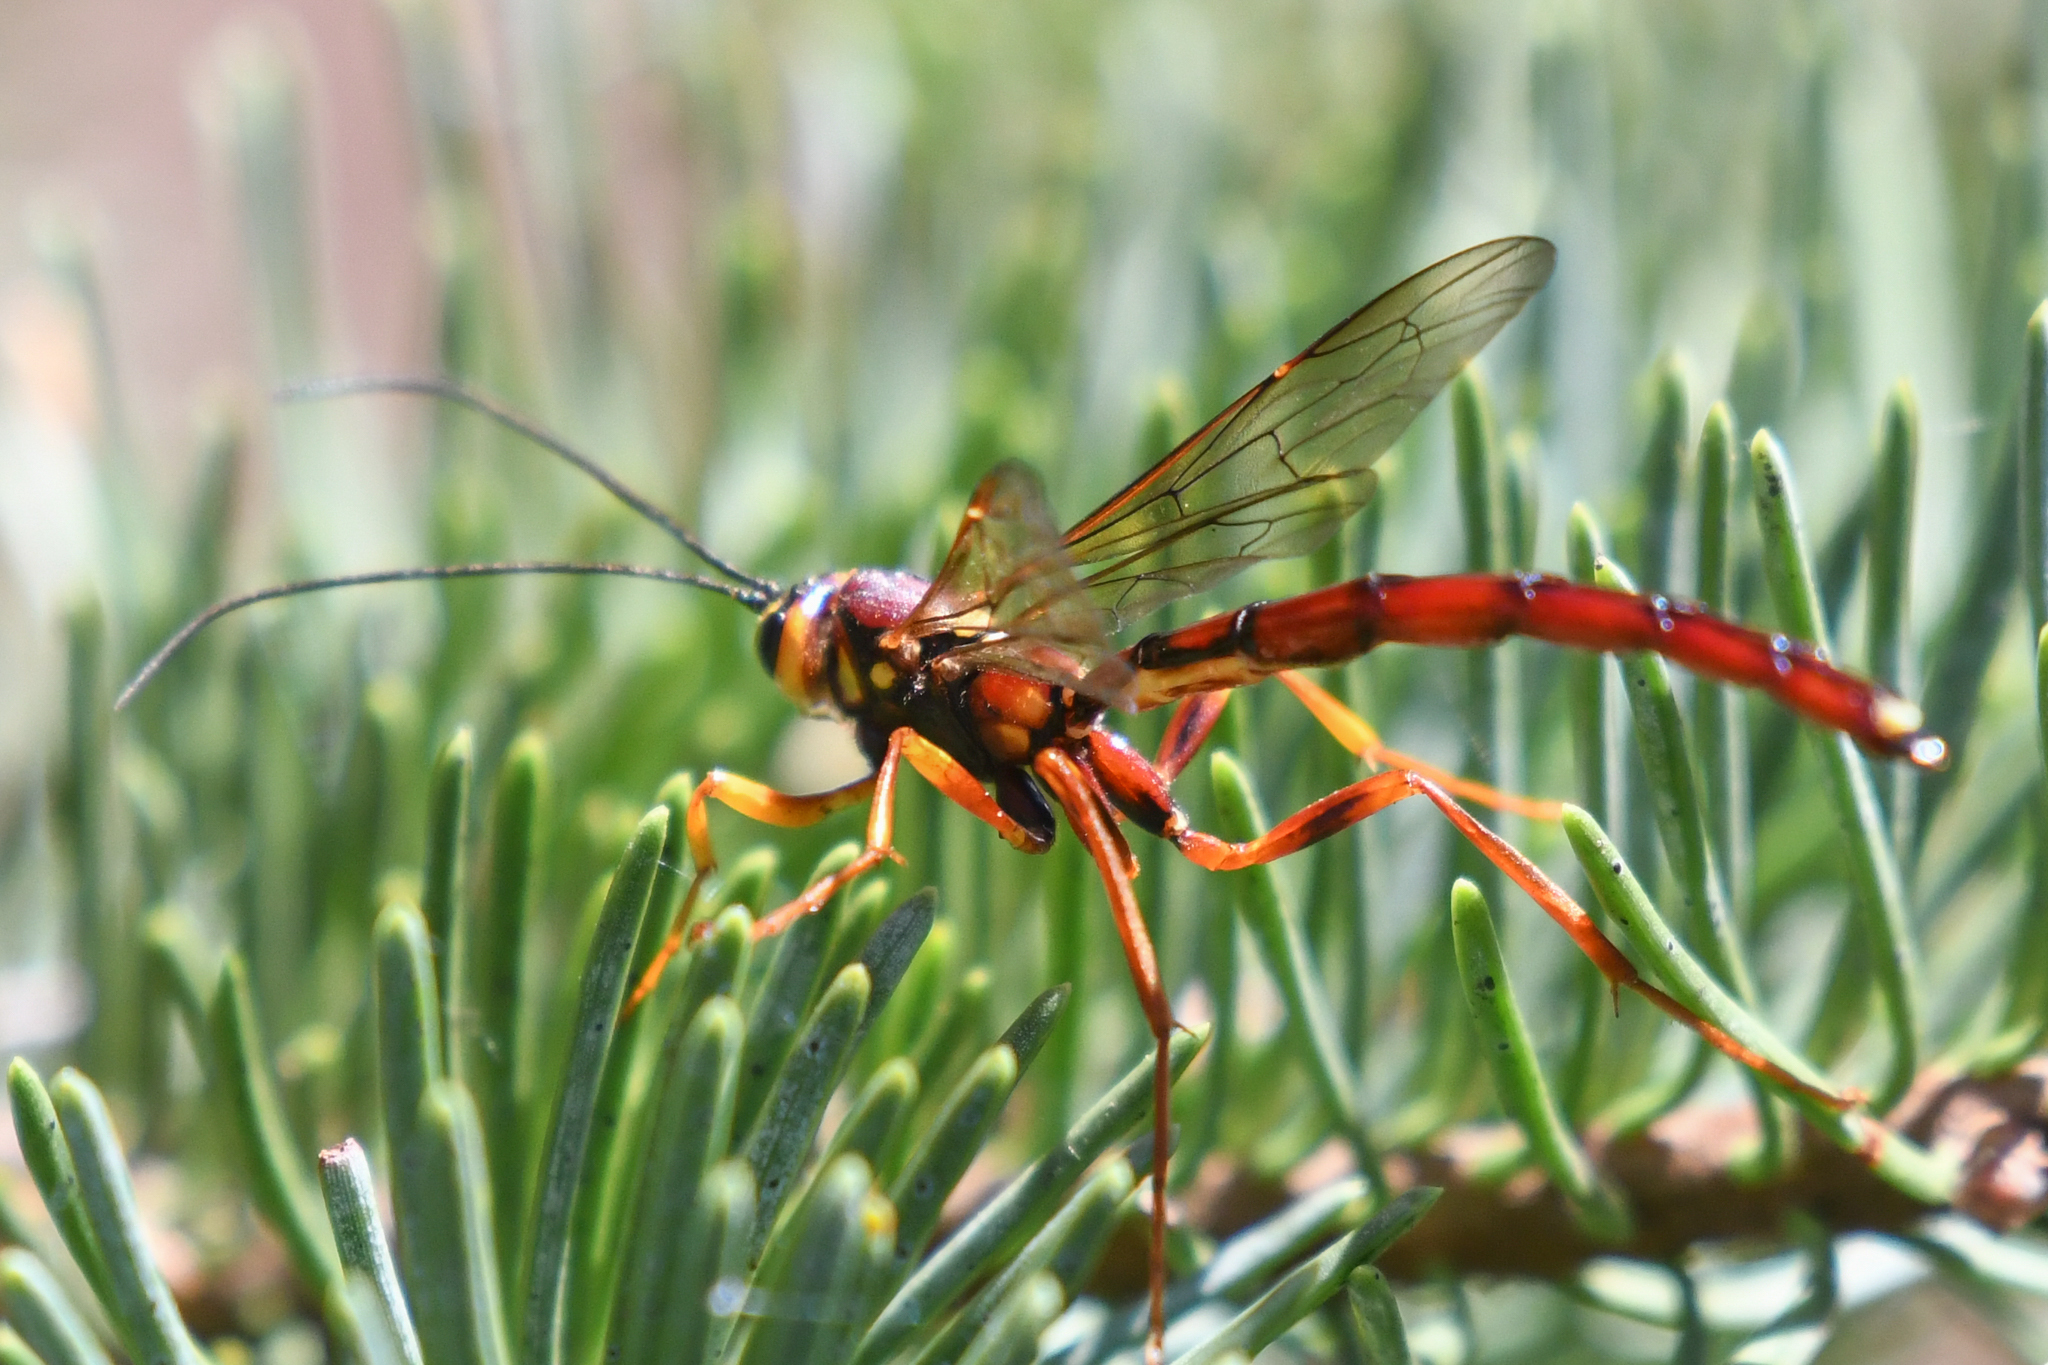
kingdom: Animalia
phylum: Arthropoda
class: Insecta
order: Hymenoptera
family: Ichneumonidae
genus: Megarhyssa
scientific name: Megarhyssa nortoni
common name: Norton's giant ichneumonid wasp
